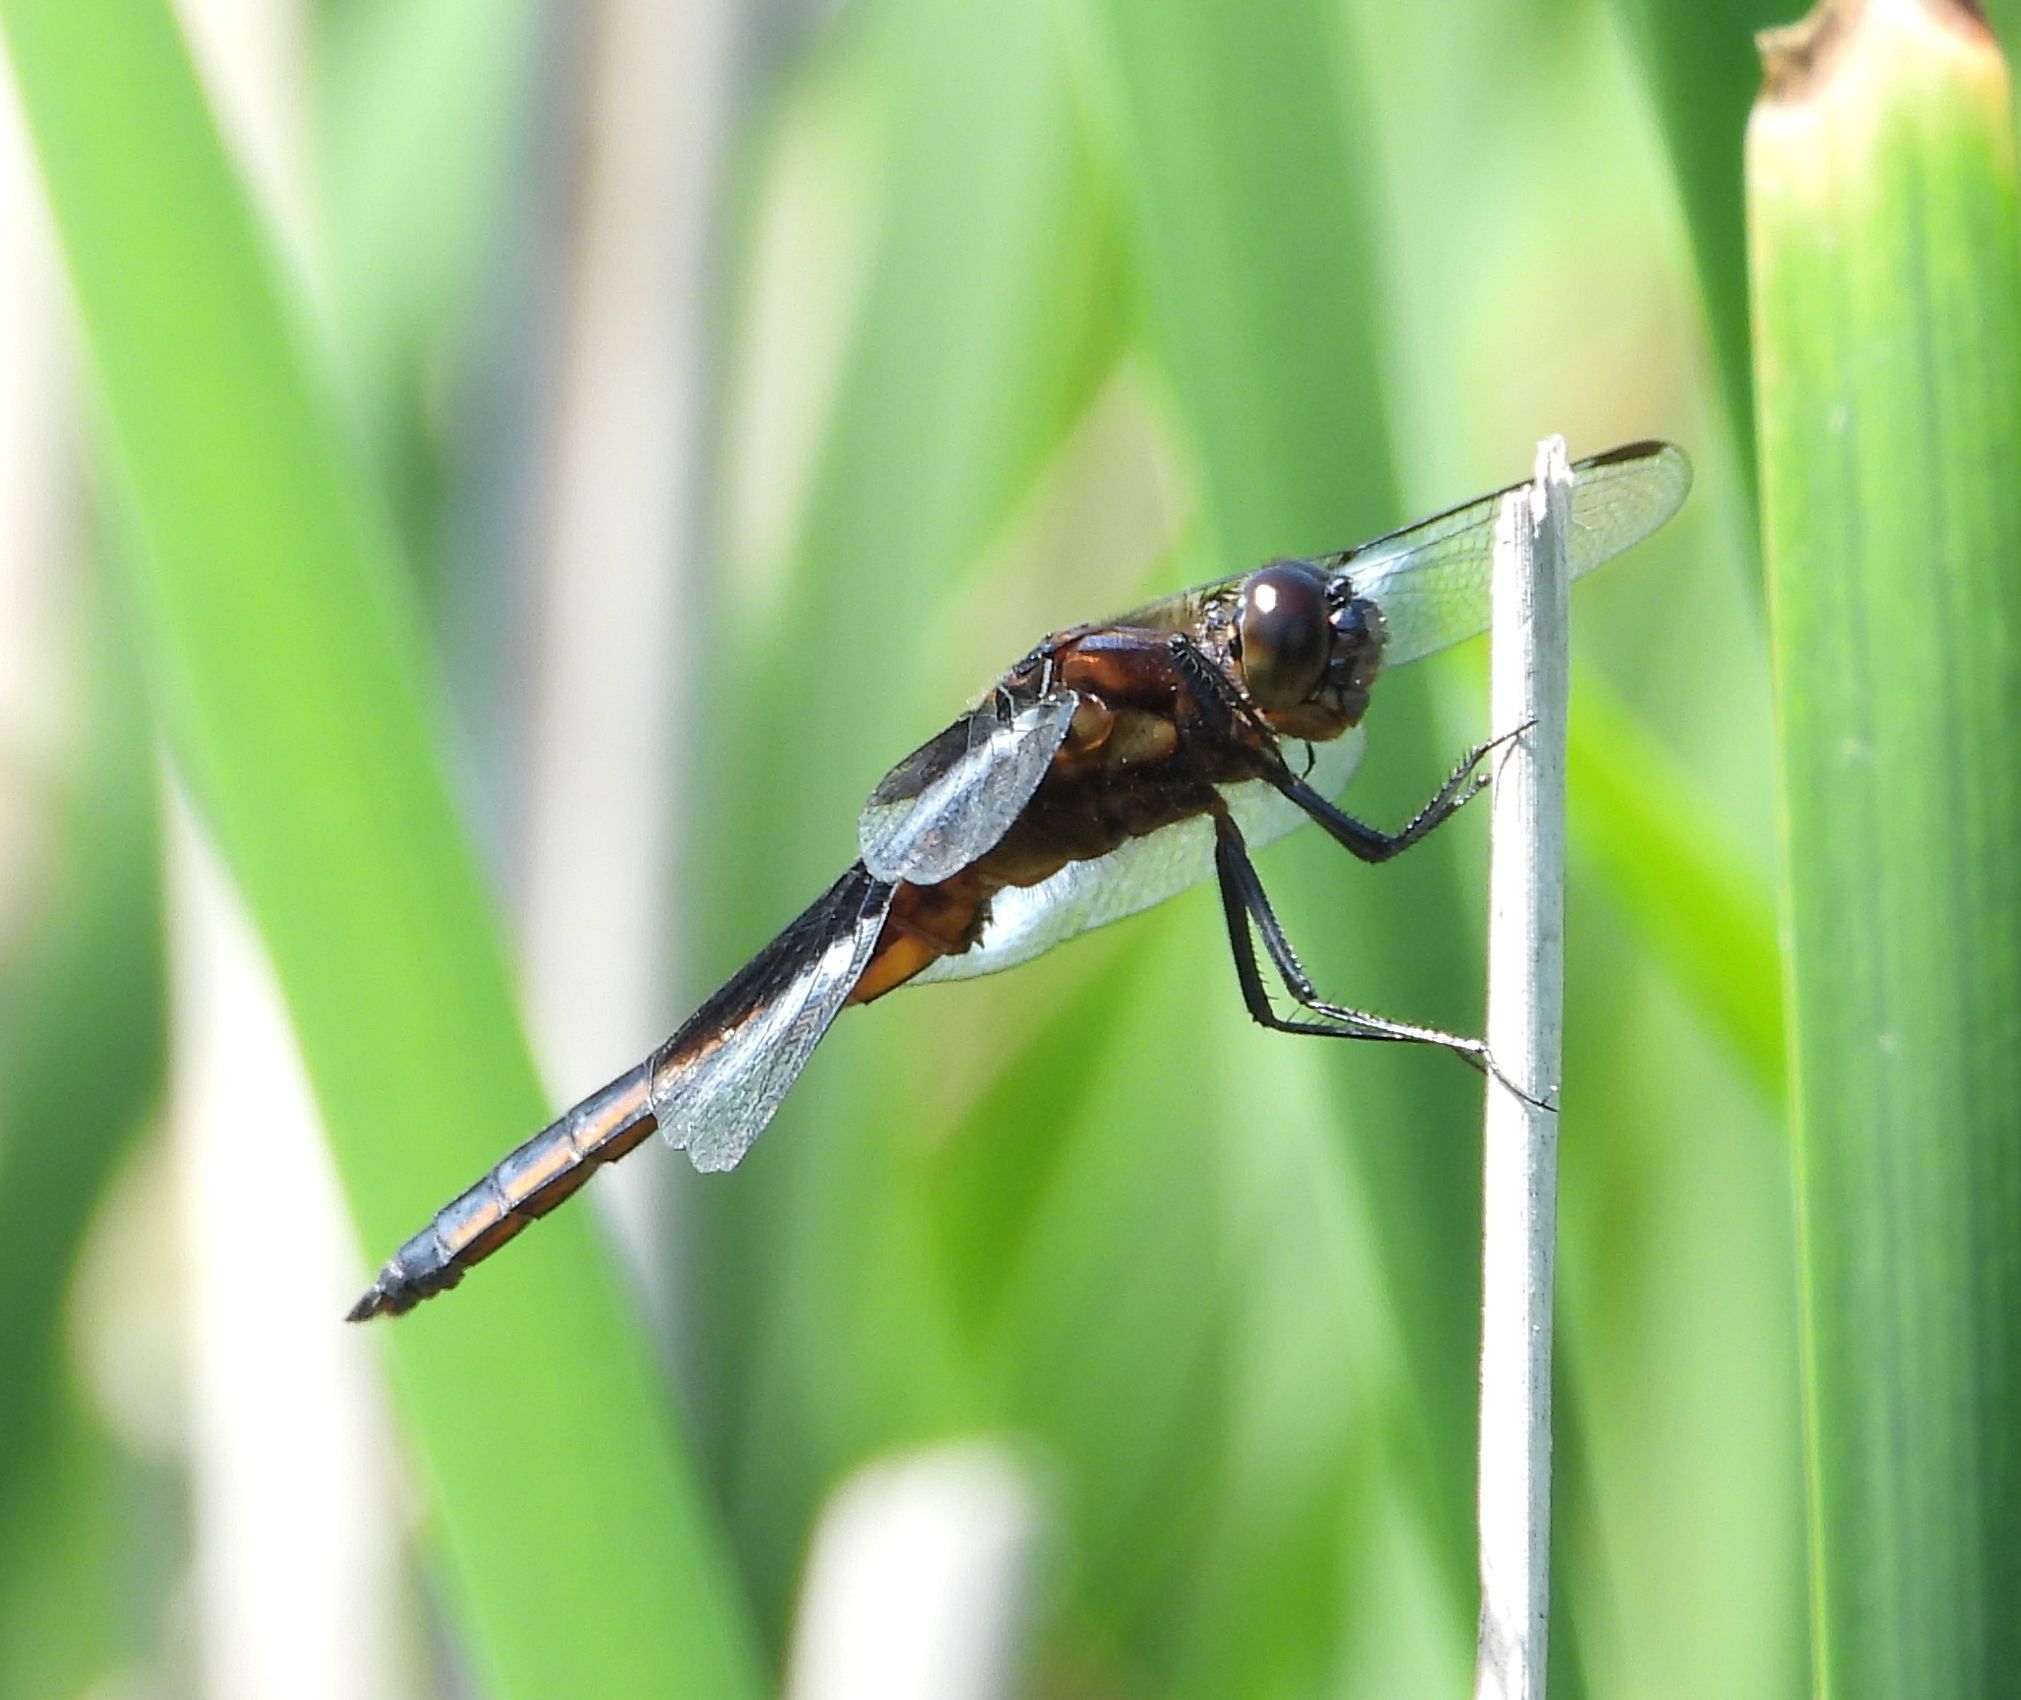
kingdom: Animalia
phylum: Arthropoda
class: Insecta
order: Odonata
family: Libellulidae
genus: Libellula
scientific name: Libellula luctuosa
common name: Widow skimmer
